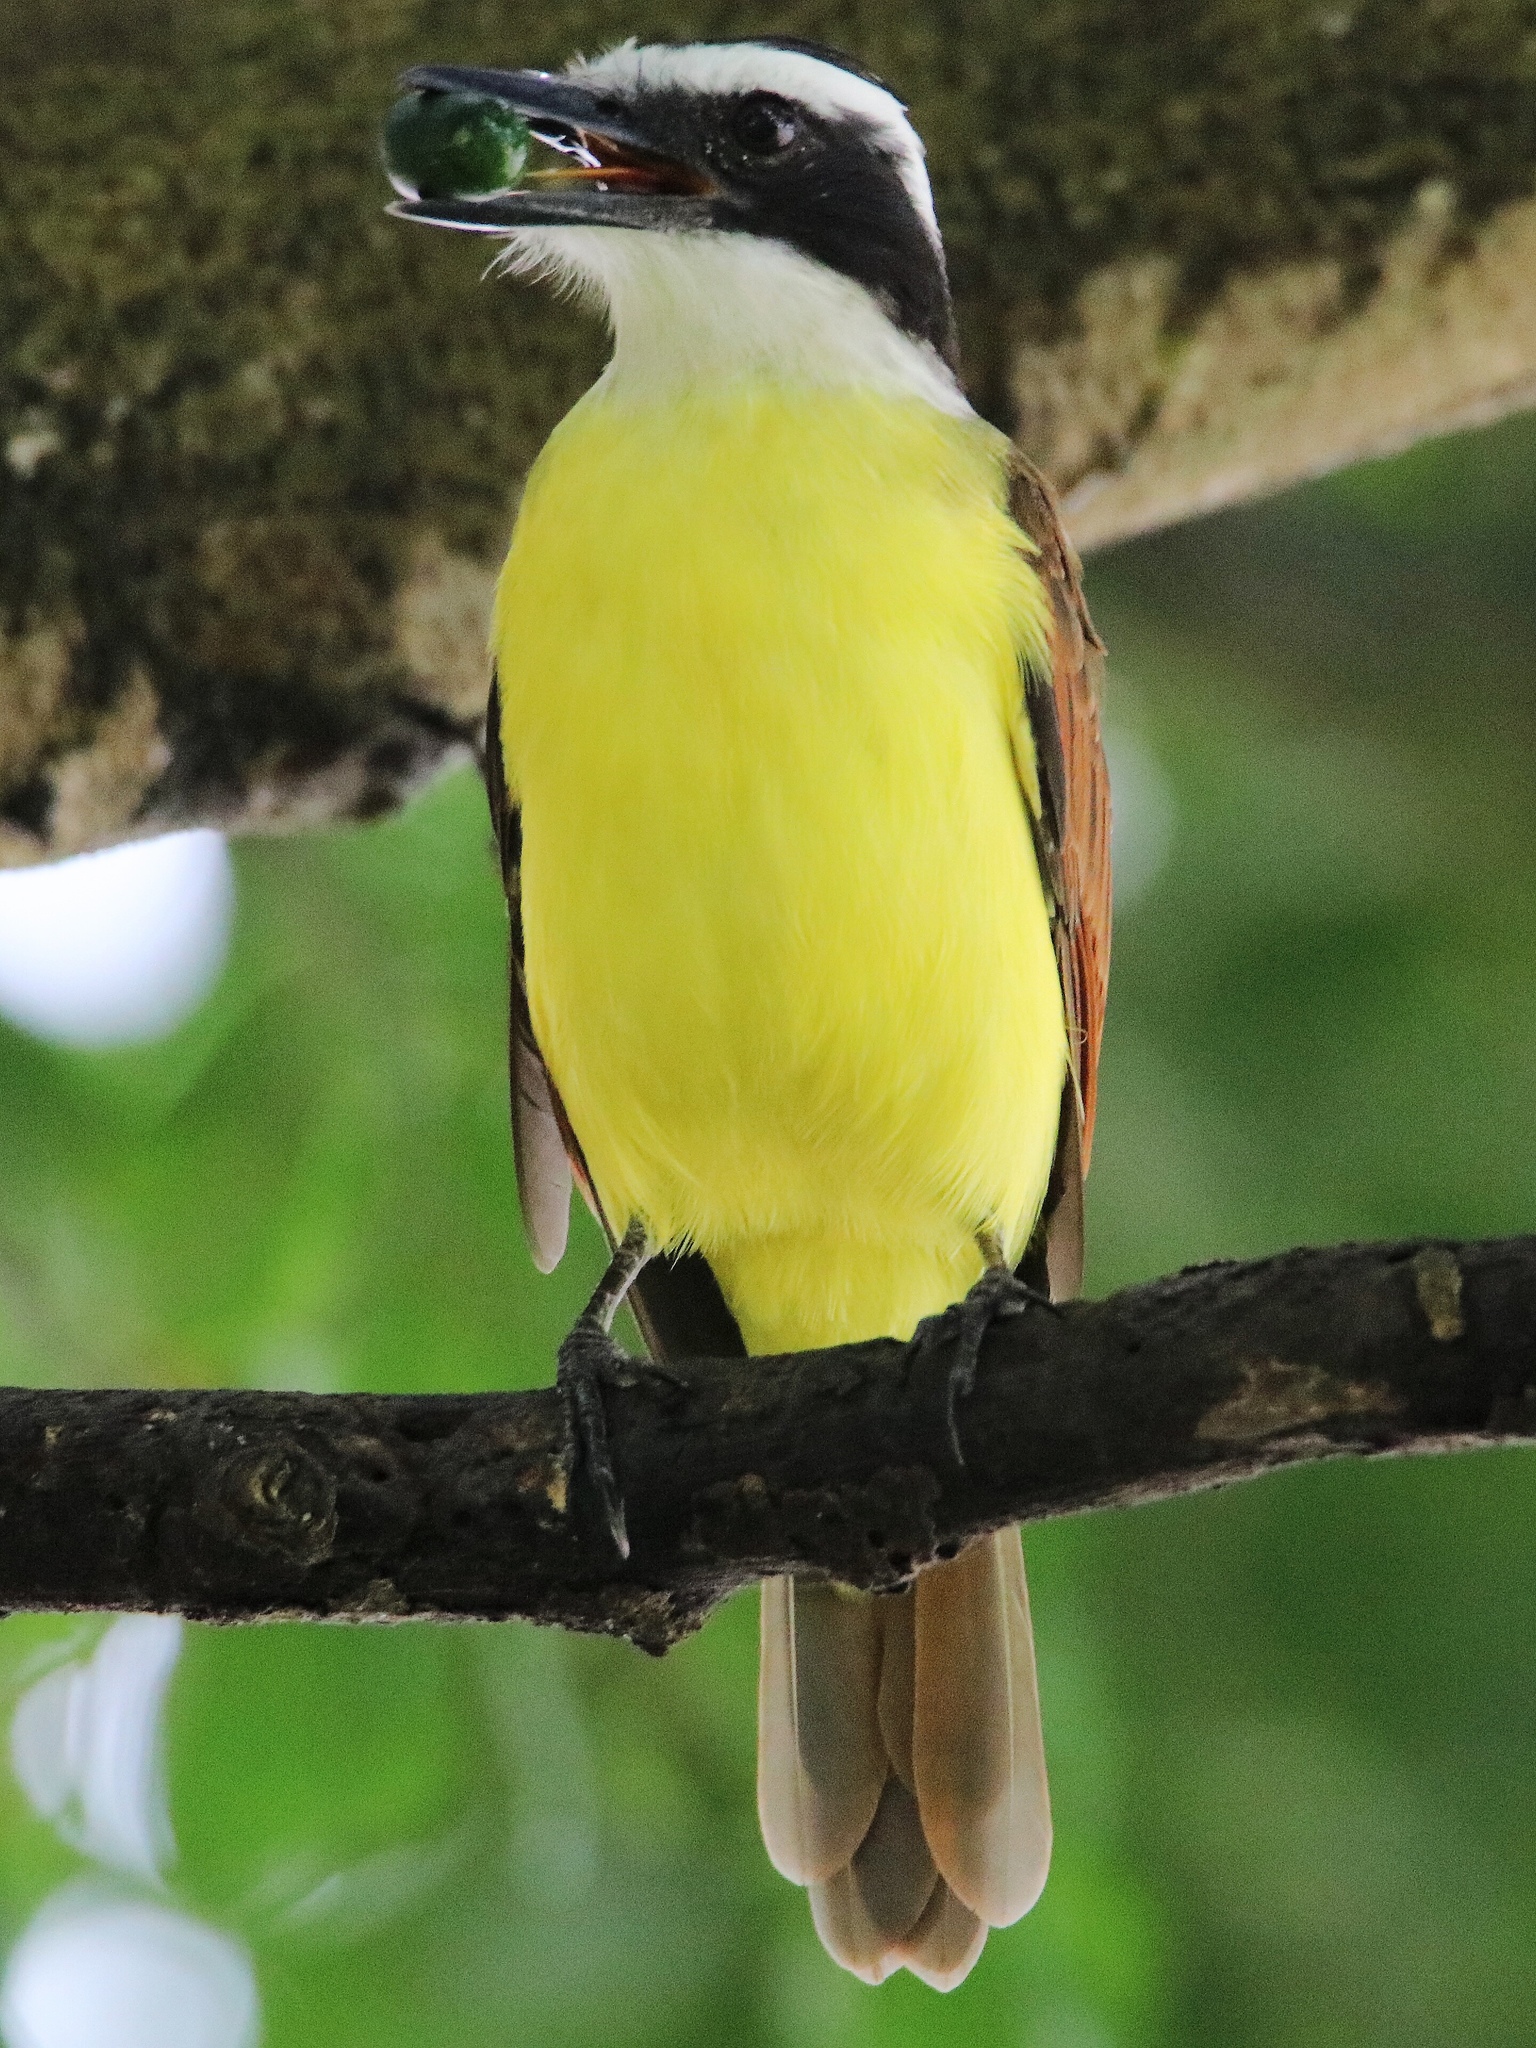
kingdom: Animalia
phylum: Chordata
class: Aves
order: Passeriformes
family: Tyrannidae
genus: Pitangus
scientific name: Pitangus sulphuratus
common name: Great kiskadee
